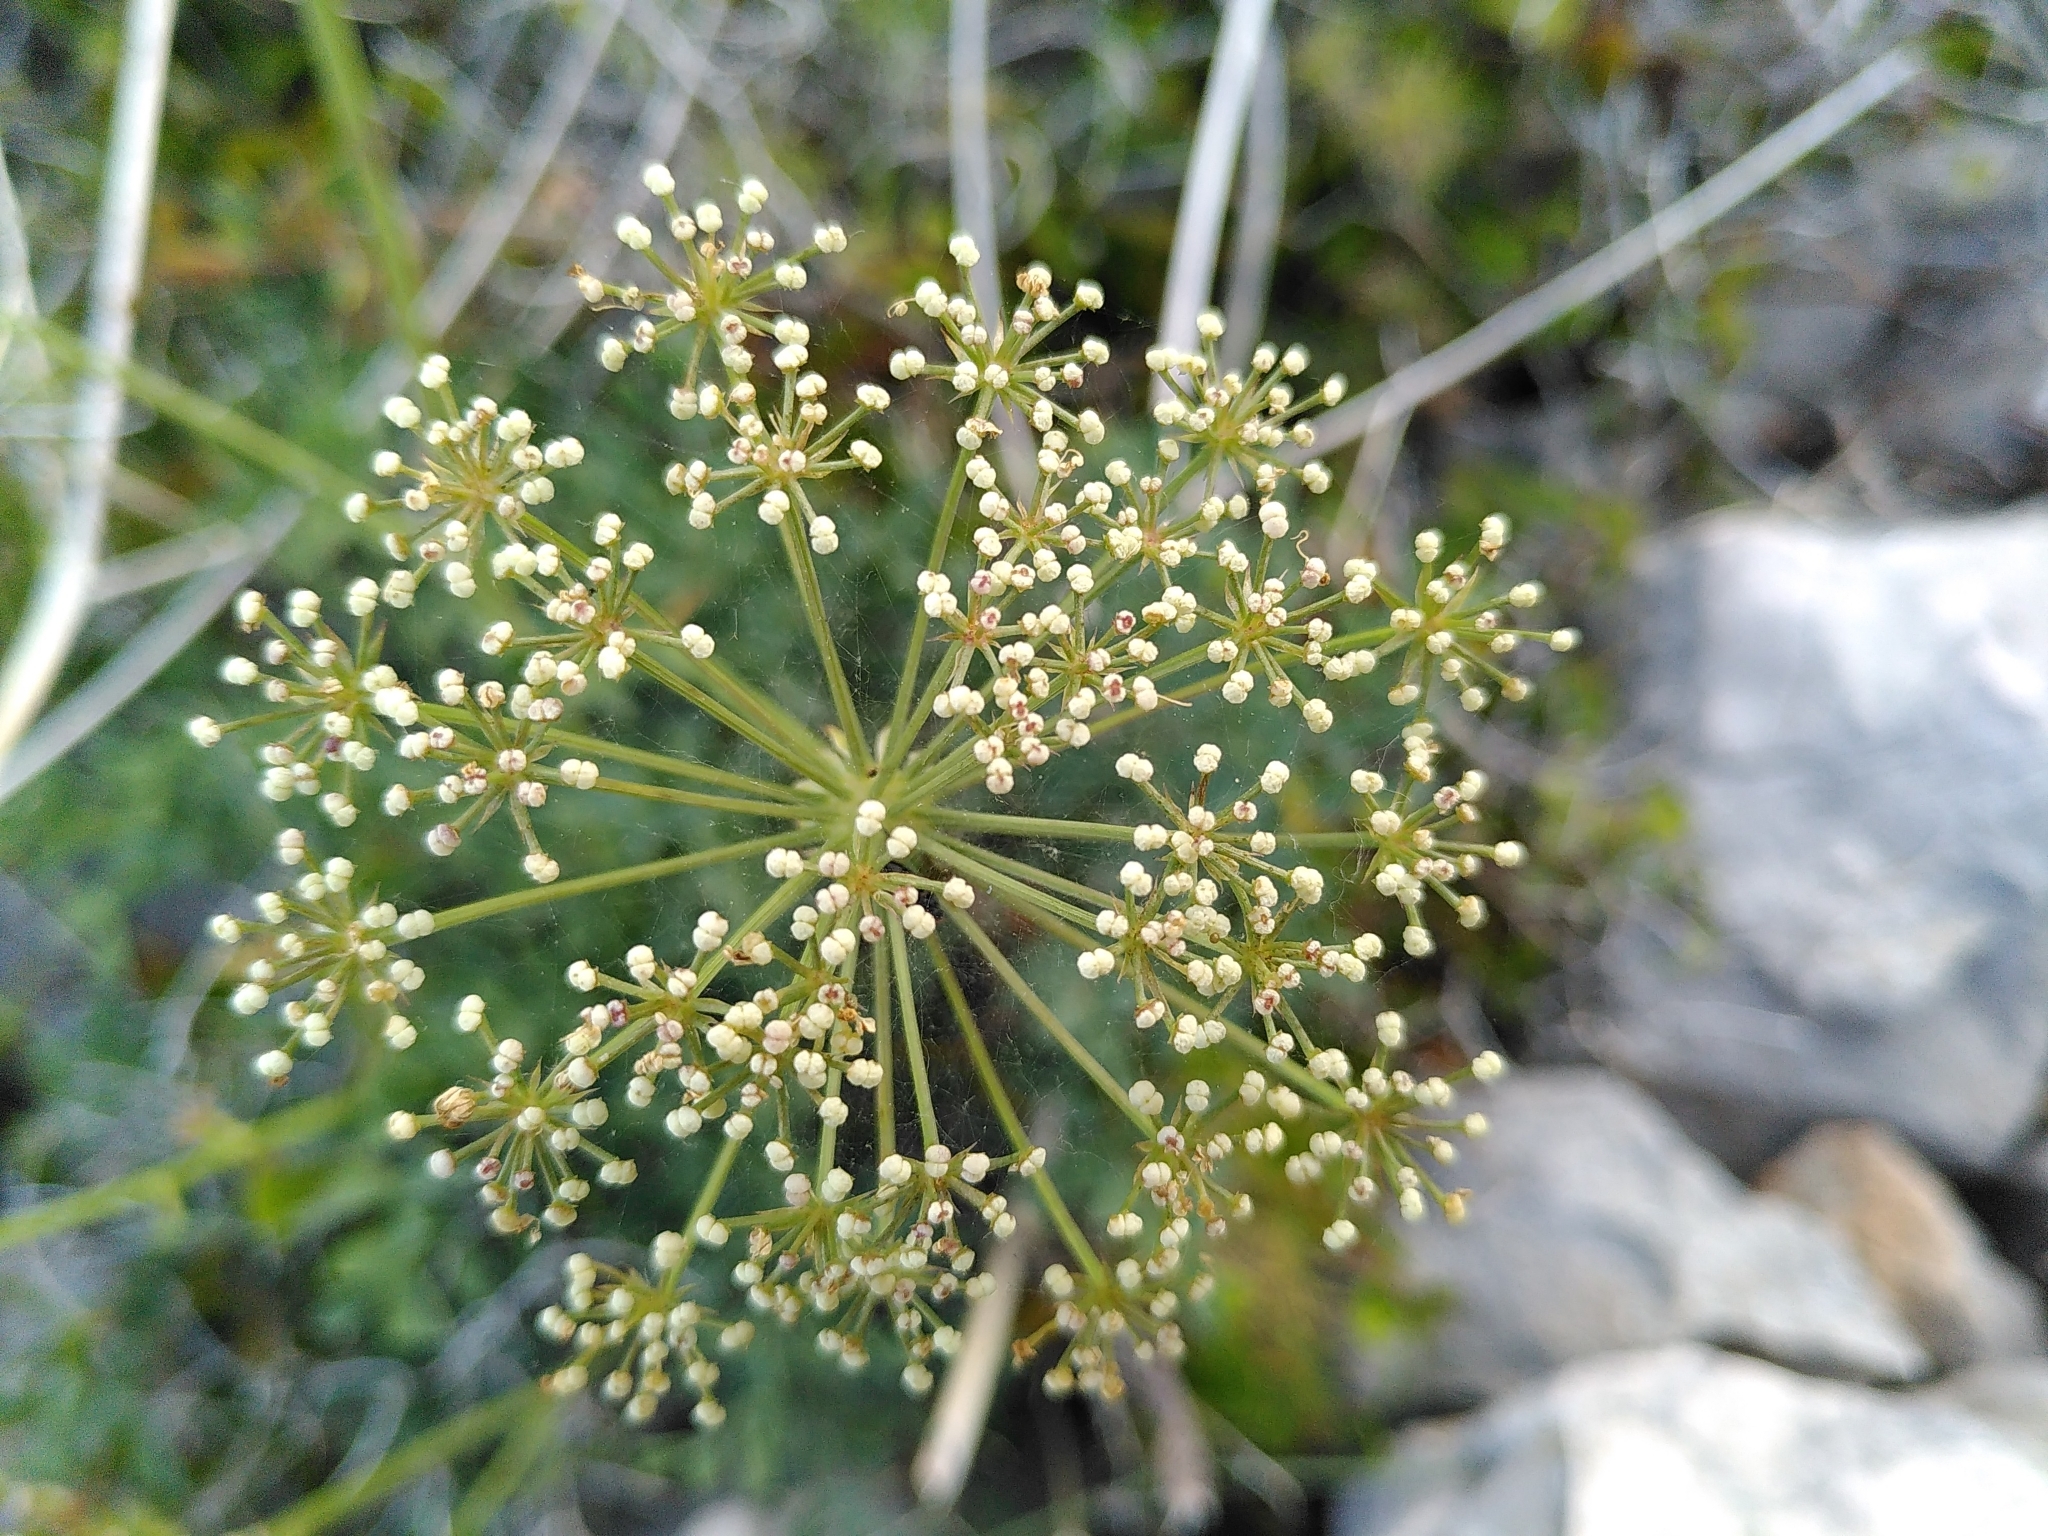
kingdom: Plantae
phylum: Tracheophyta
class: Magnoliopsida
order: Apiales
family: Apiaceae
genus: Laserpitium
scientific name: Laserpitium gallicum
